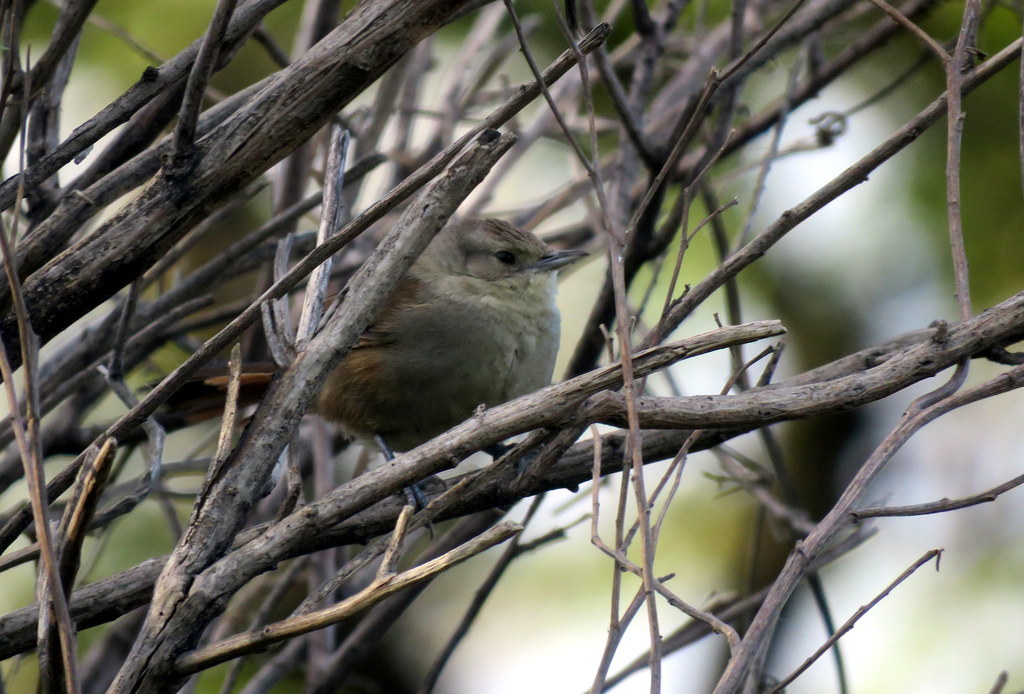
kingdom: Animalia
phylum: Chordata
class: Aves
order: Passeriformes
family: Furnariidae
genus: Phacellodomus
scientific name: Phacellodomus sibilatrix
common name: Little thornbird
